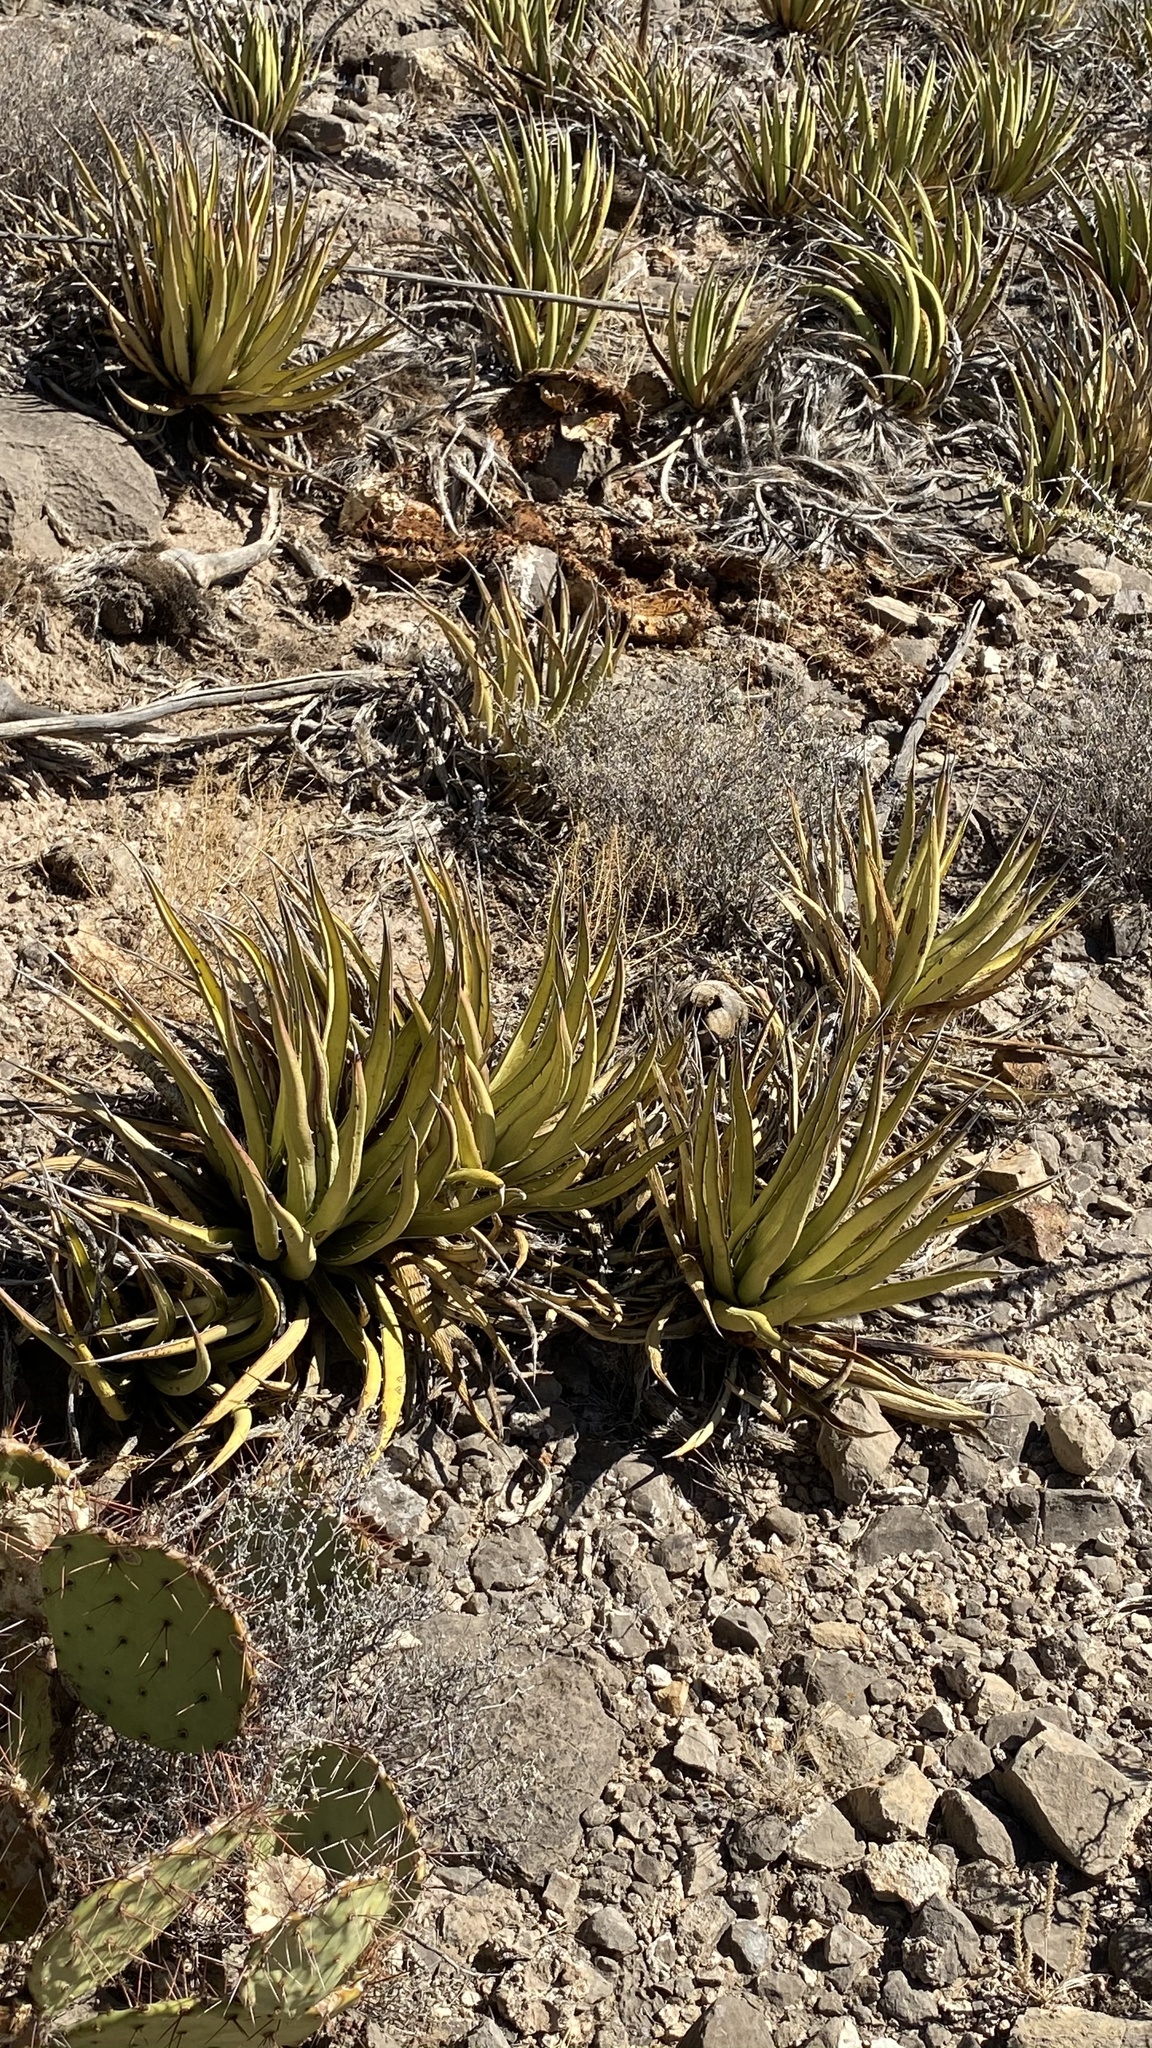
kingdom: Plantae
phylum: Tracheophyta
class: Liliopsida
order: Asparagales
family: Asparagaceae
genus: Agave
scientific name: Agave lechuguilla
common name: Lecheguilla agave
